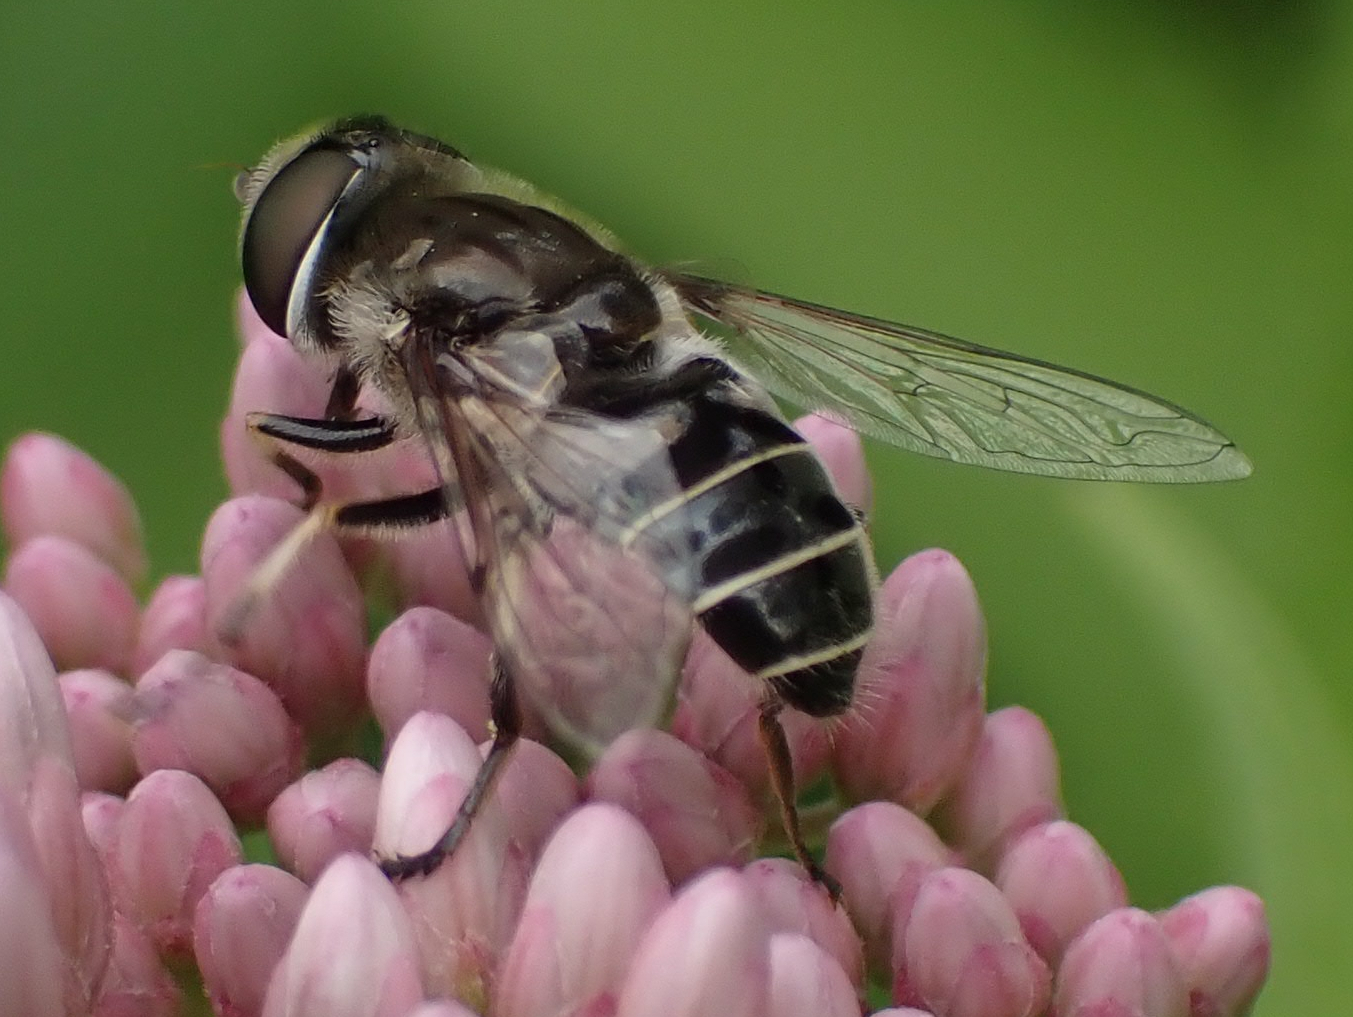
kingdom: Animalia
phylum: Arthropoda
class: Insecta
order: Diptera
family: Syrphidae
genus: Eristalis
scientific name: Eristalis dimidiata
